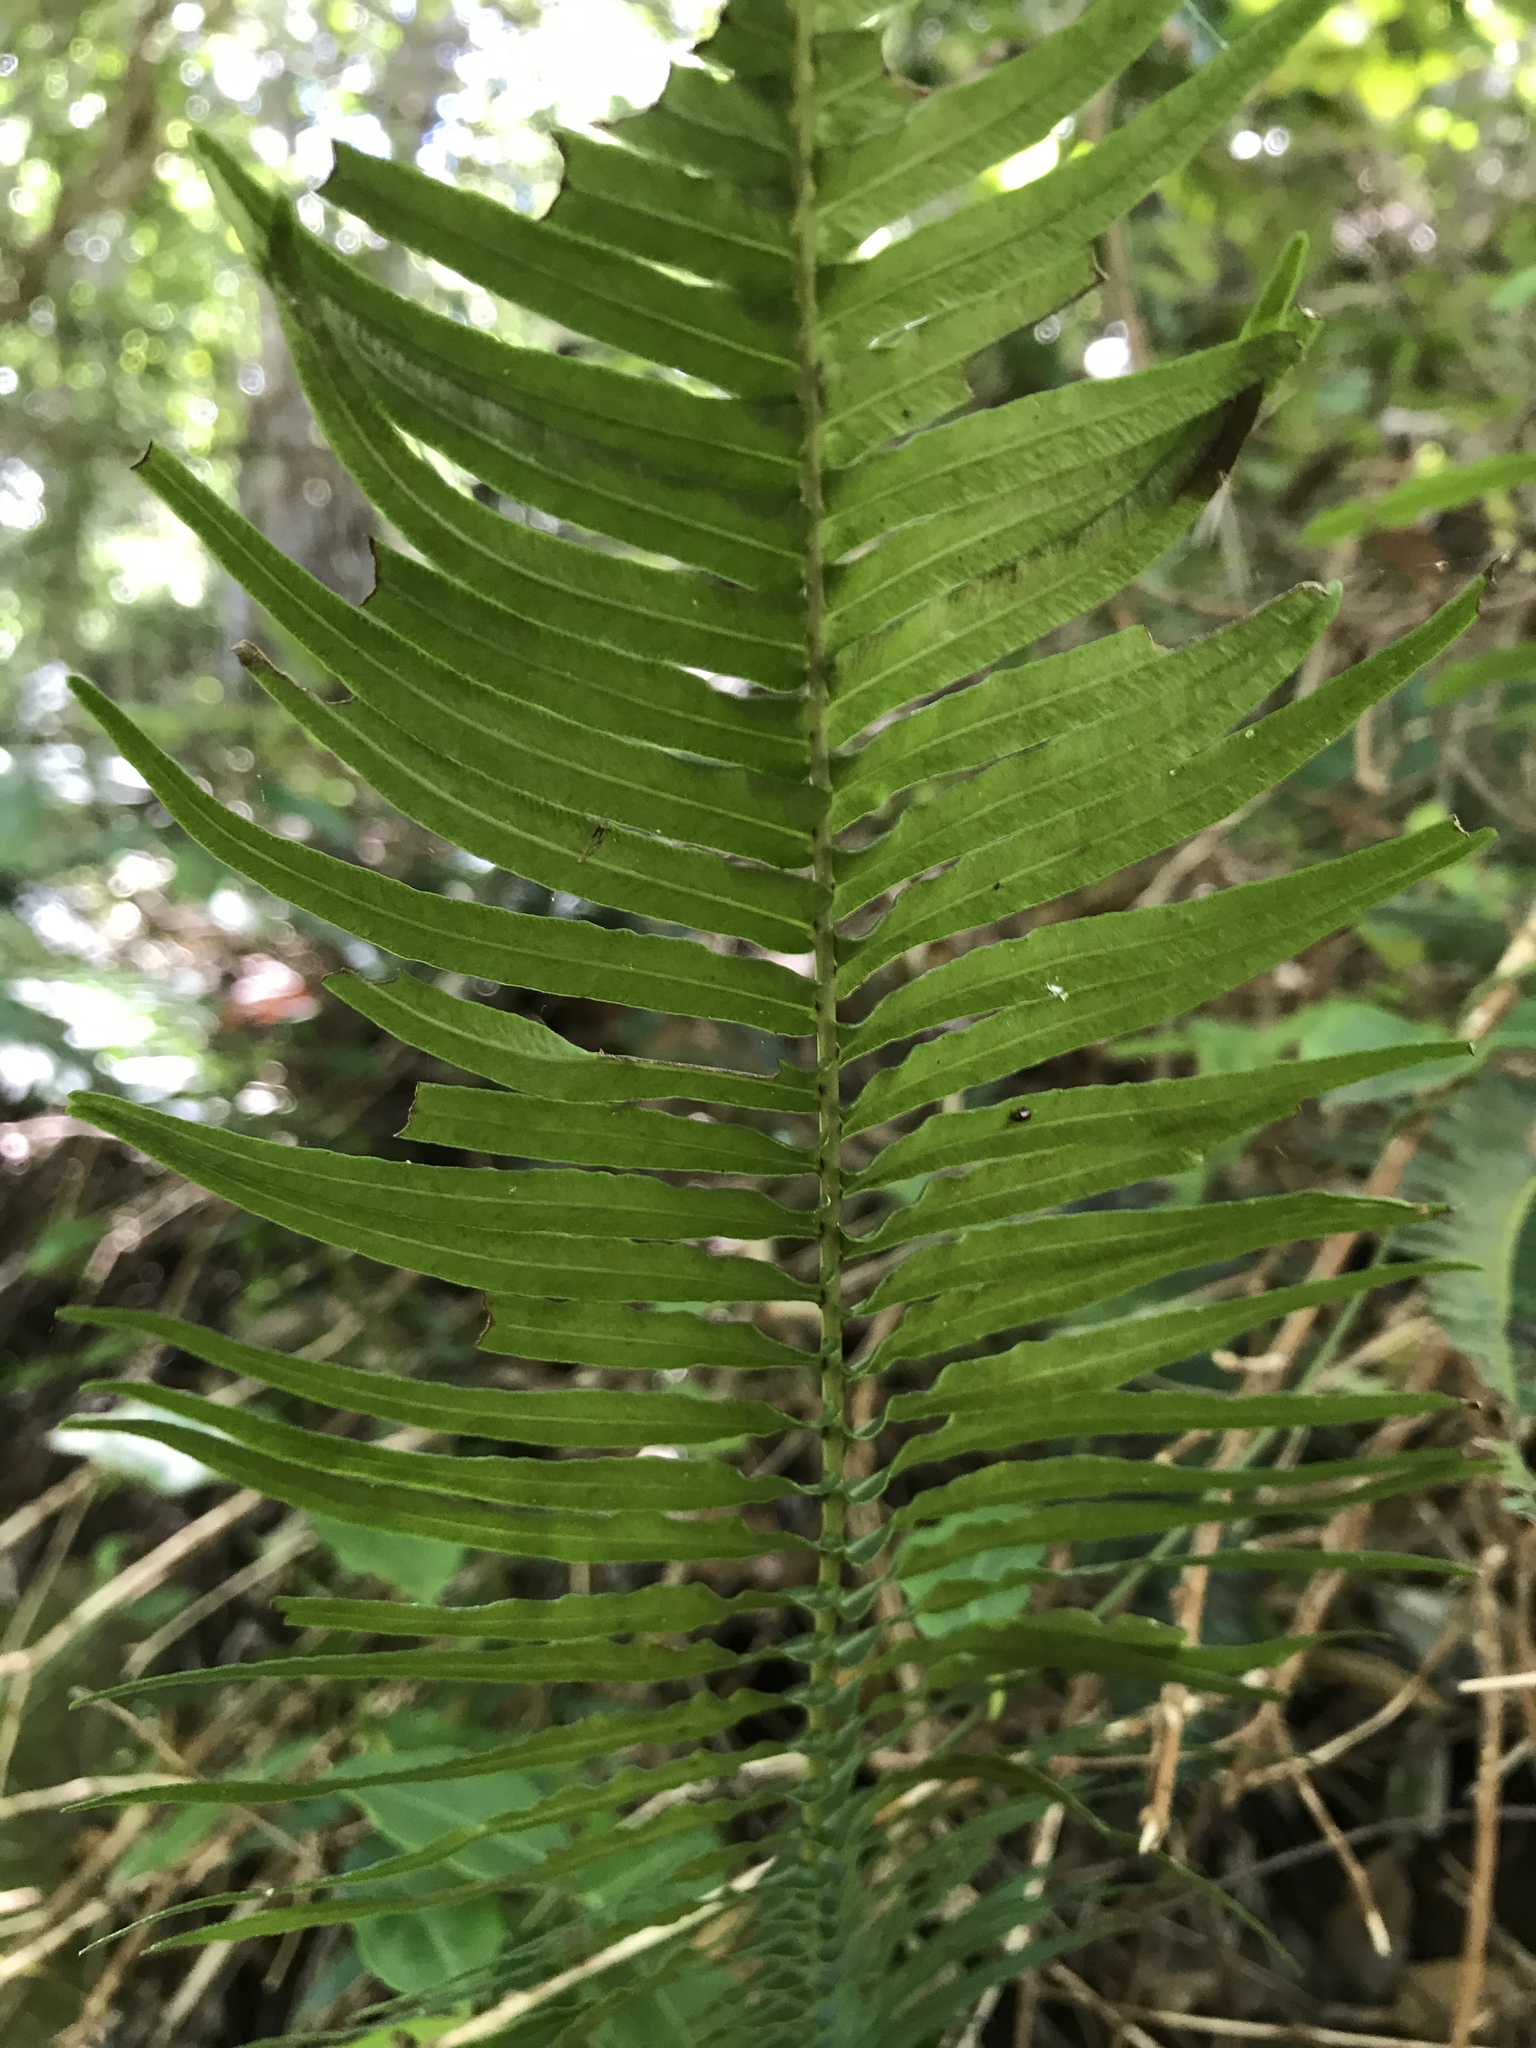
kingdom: Plantae
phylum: Tracheophyta
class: Polypodiopsida
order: Polypodiales
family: Blechnaceae
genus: Blechnum
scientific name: Blechnum punctulatum
